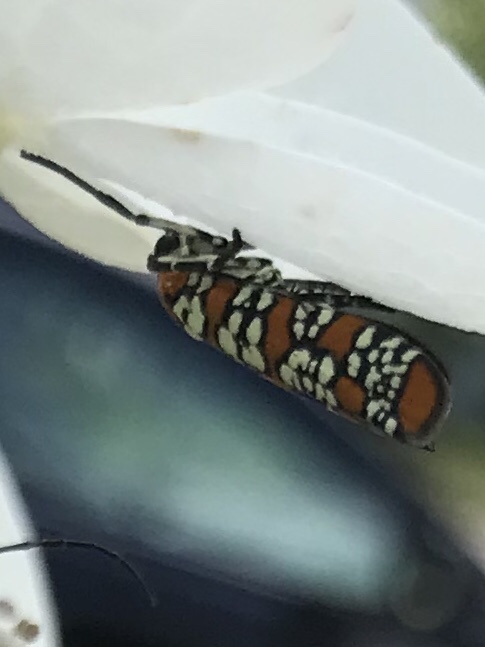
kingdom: Animalia
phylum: Arthropoda
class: Insecta
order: Lepidoptera
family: Attevidae
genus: Atteva
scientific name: Atteva punctella
